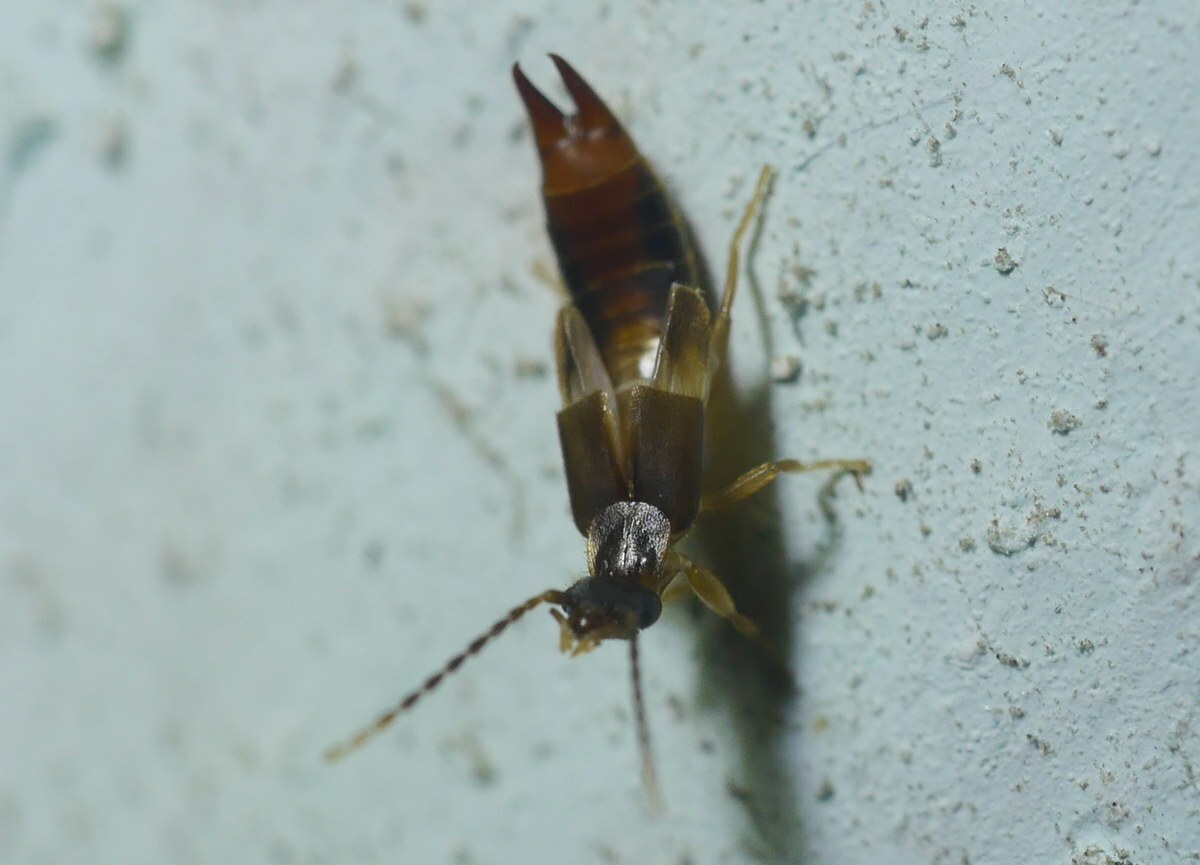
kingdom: Animalia
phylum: Arthropoda
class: Insecta
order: Dermaptera
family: Spongiphoridae
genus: Labia
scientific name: Labia minor
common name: Lesser earwig
